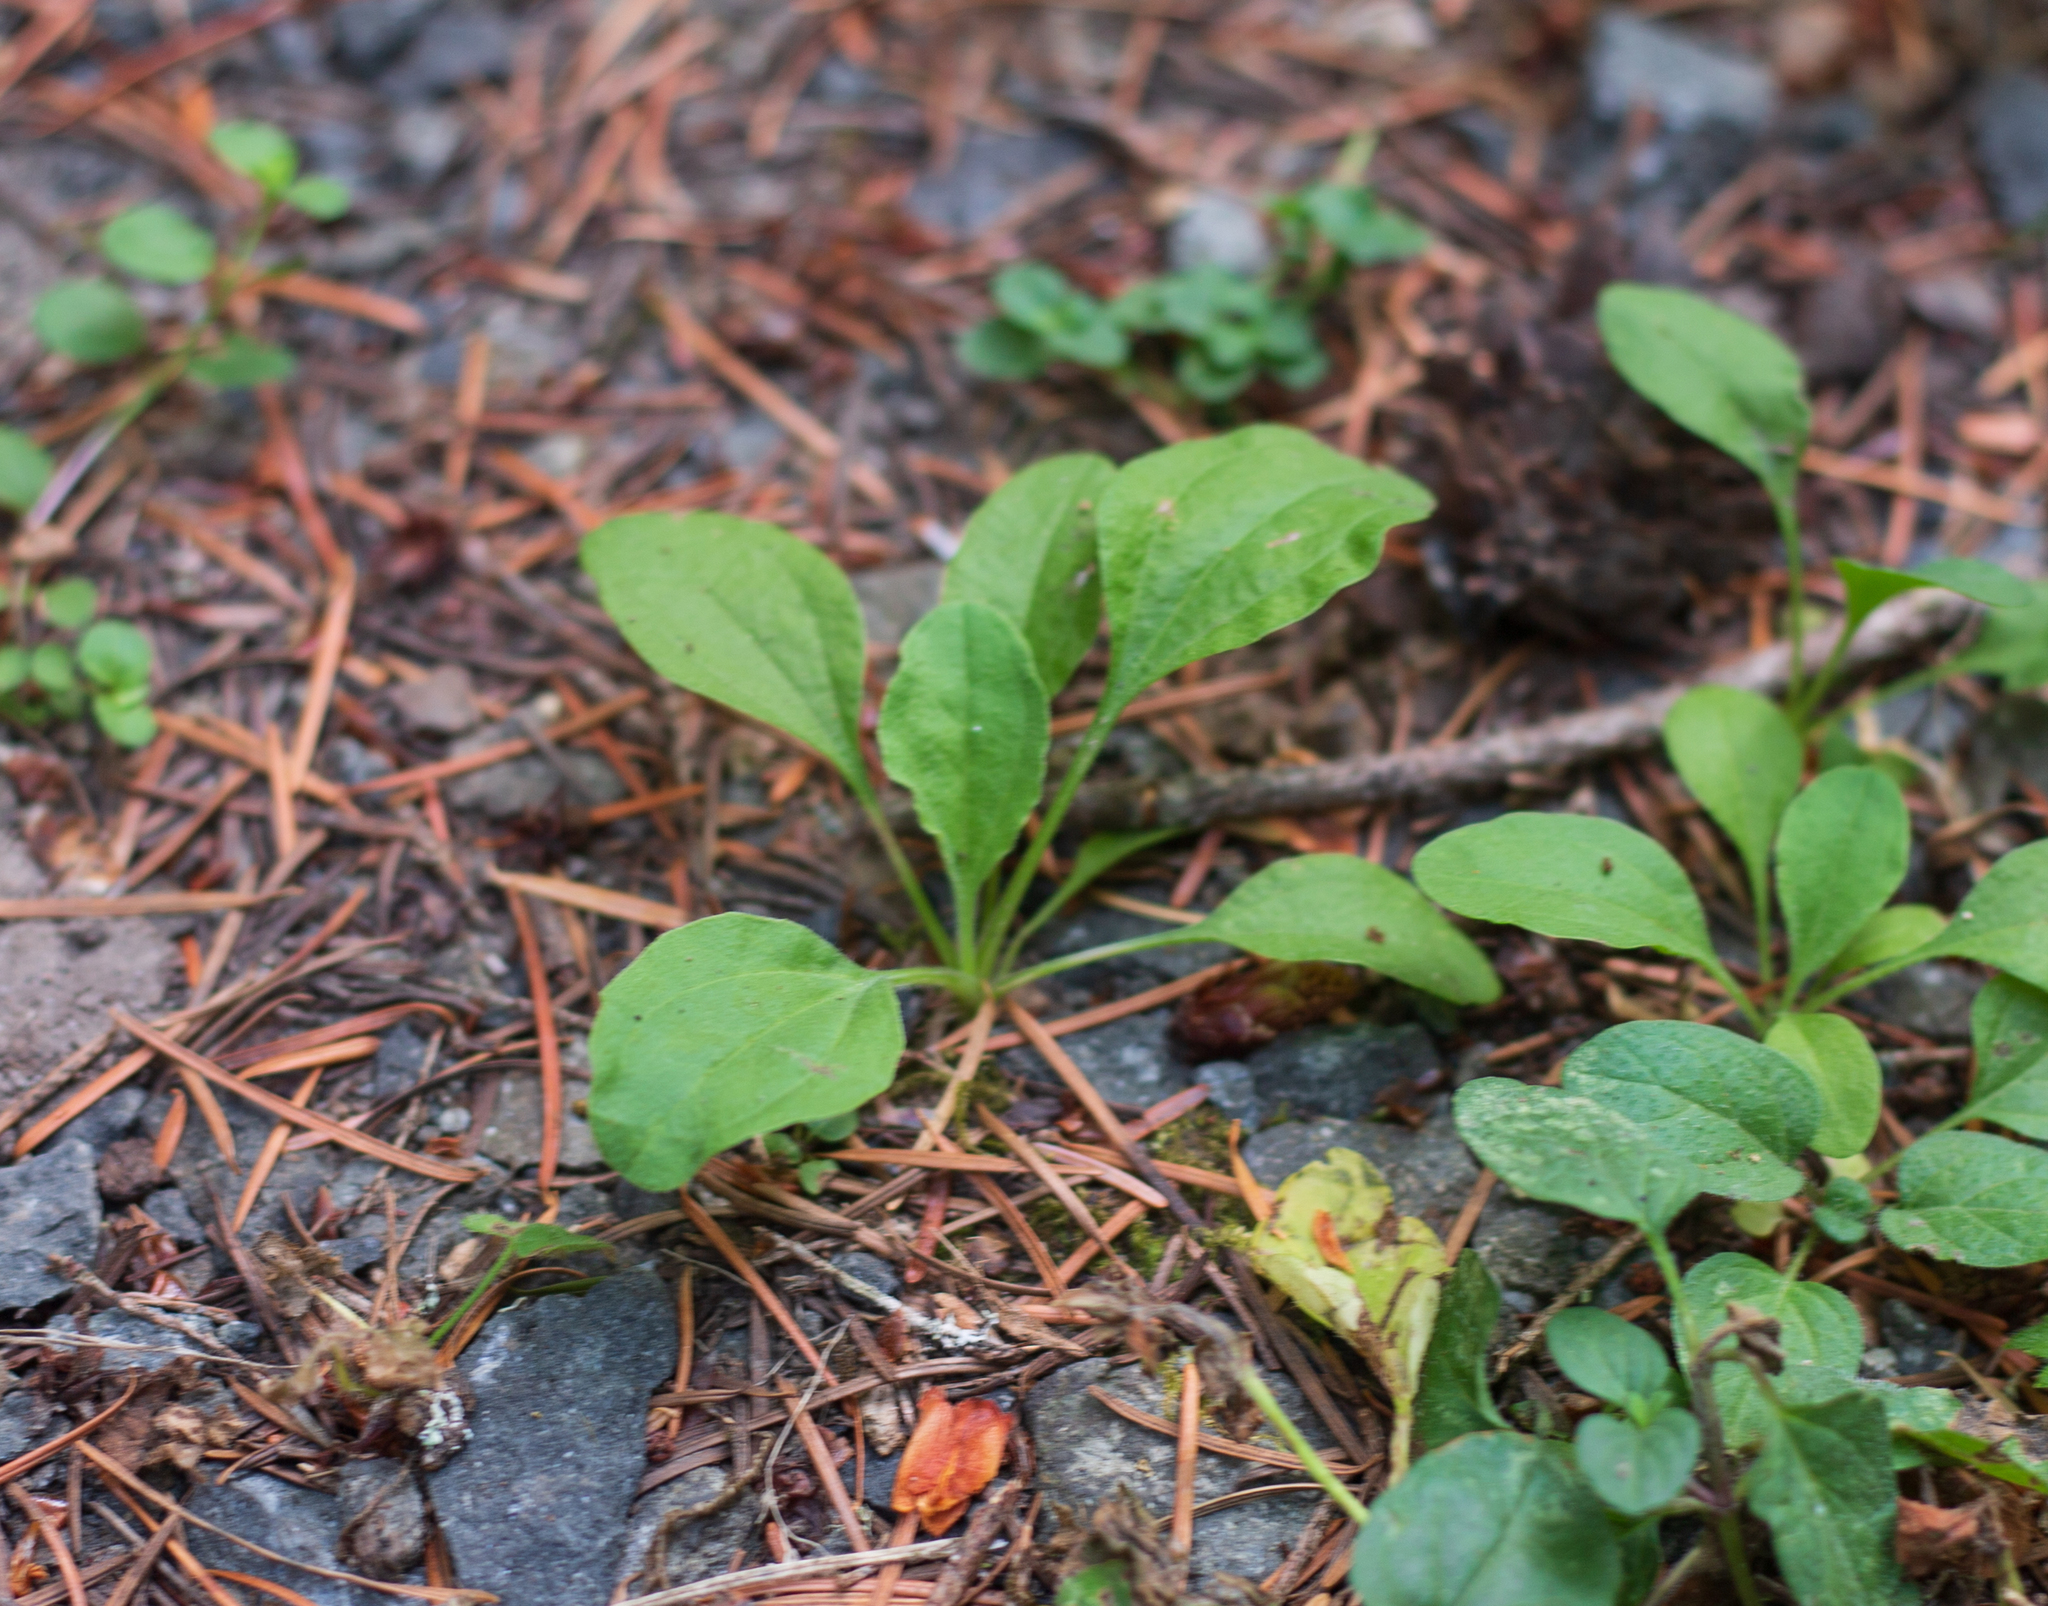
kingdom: Plantae
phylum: Tracheophyta
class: Magnoliopsida
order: Lamiales
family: Plantaginaceae
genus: Plantago
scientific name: Plantago major
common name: Common plantain
